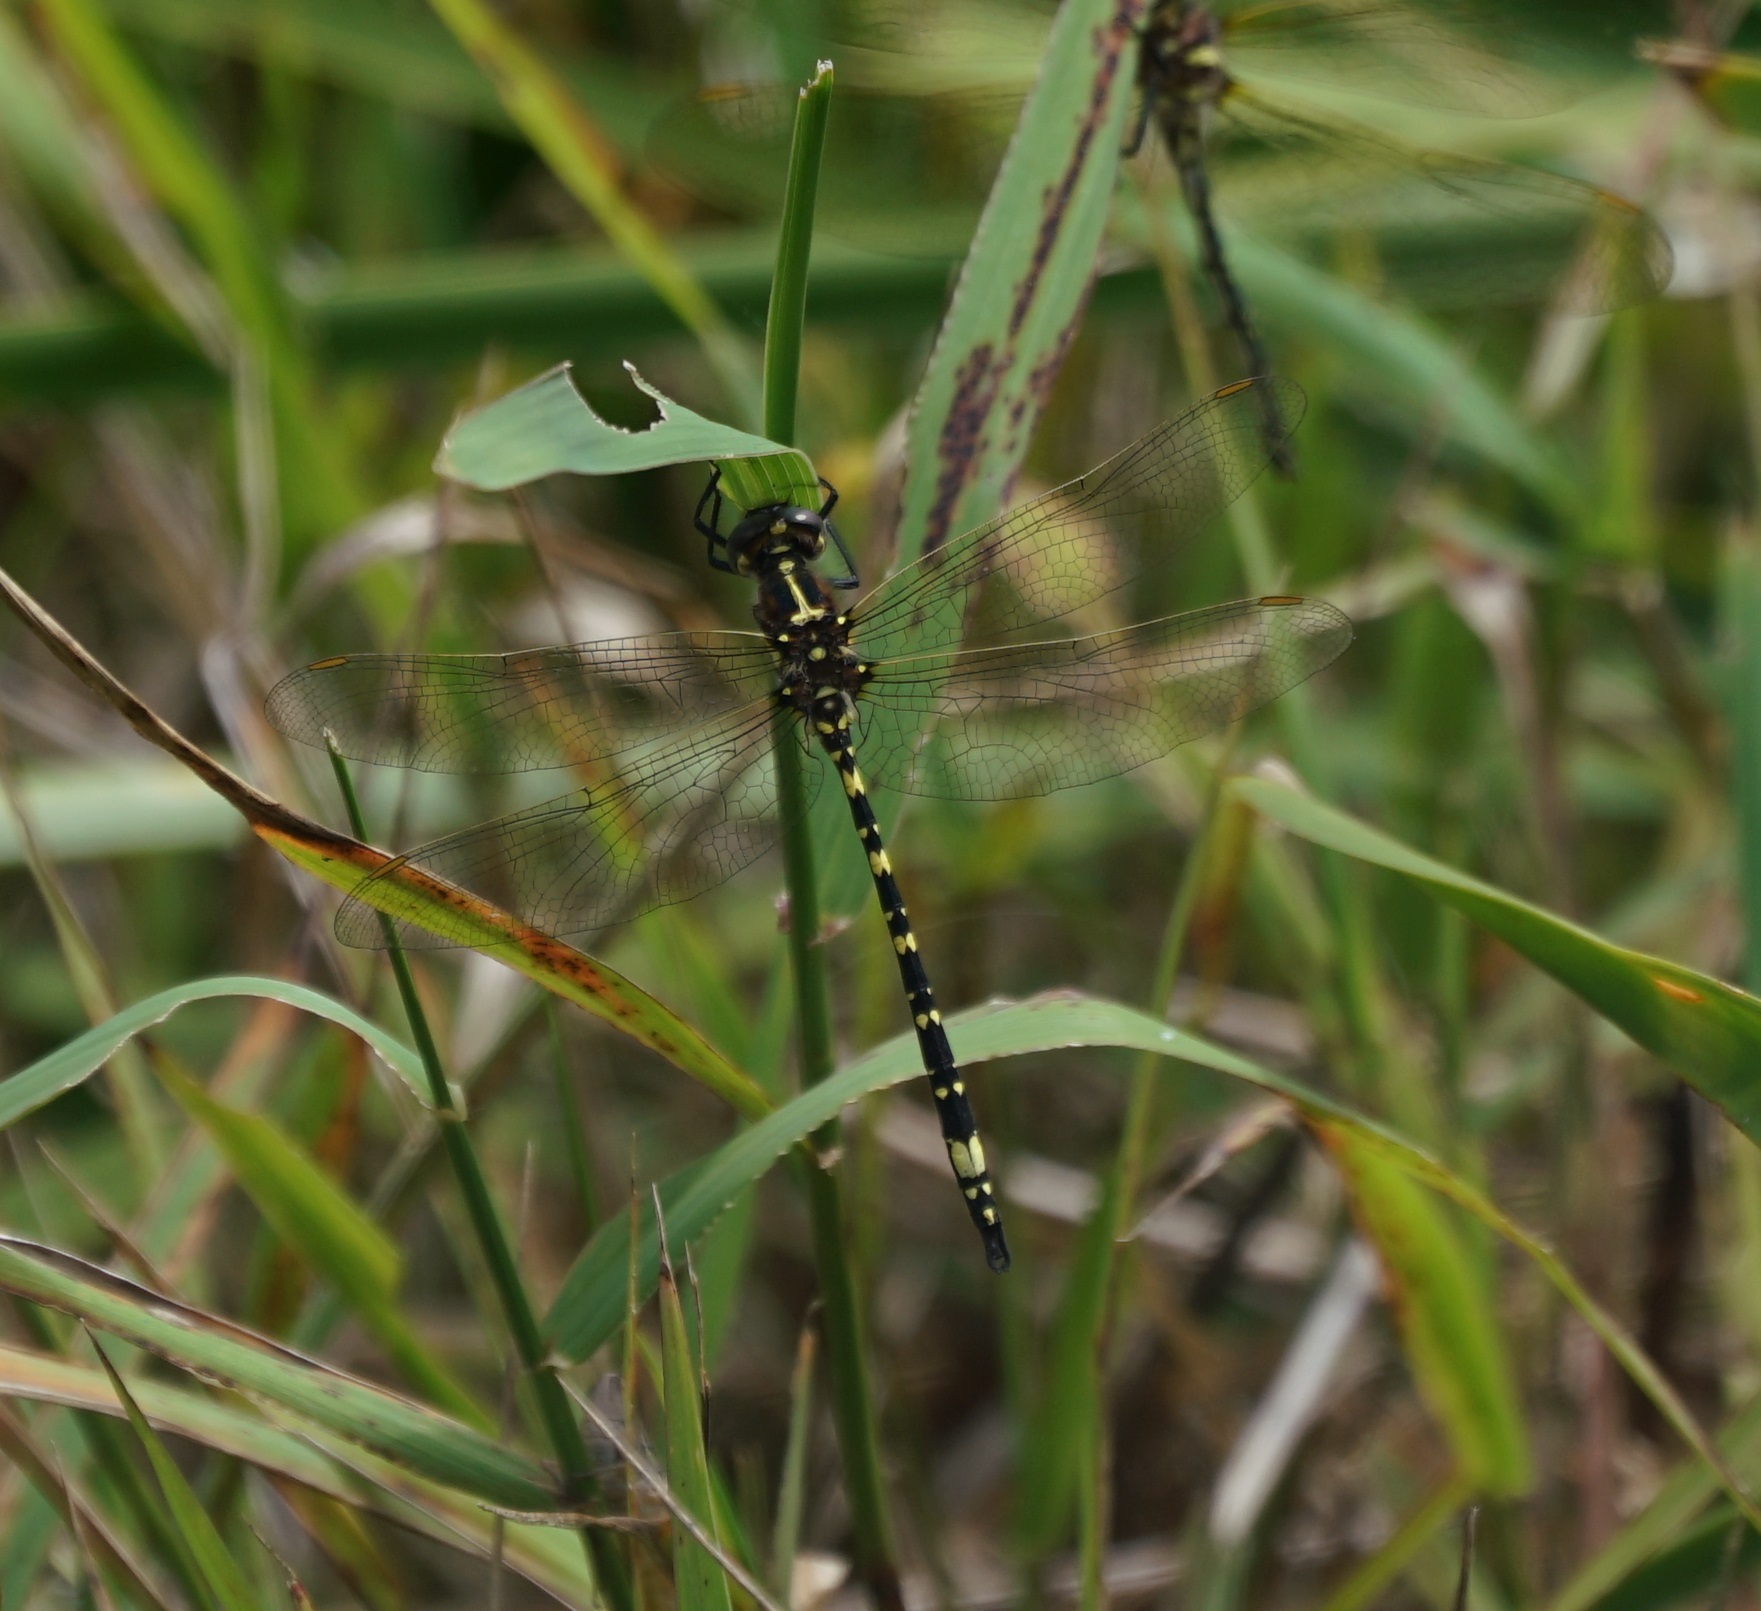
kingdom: Animalia
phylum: Arthropoda
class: Insecta
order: Odonata
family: Synthemistidae
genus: Synthemis
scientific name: Synthemis eustalacta
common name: Swamp tigertail
